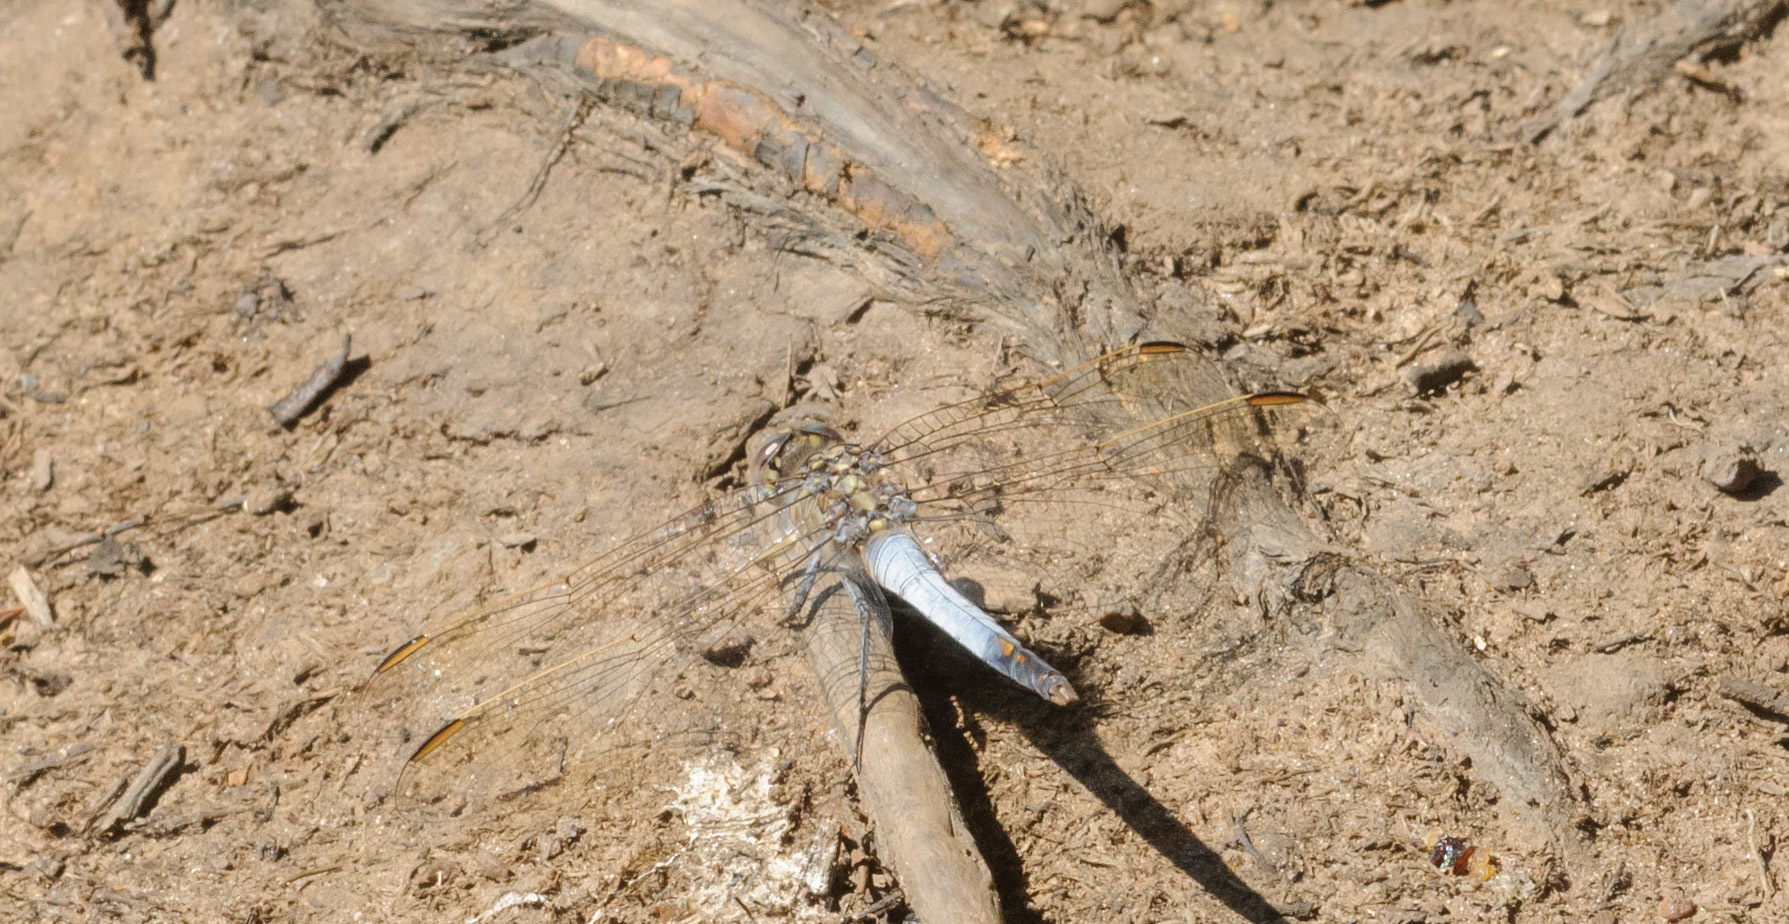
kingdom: Animalia
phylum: Arthropoda
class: Insecta
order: Odonata
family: Libellulidae
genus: Orthetrum
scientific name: Orthetrum caledonicum
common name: Blue skimmer
